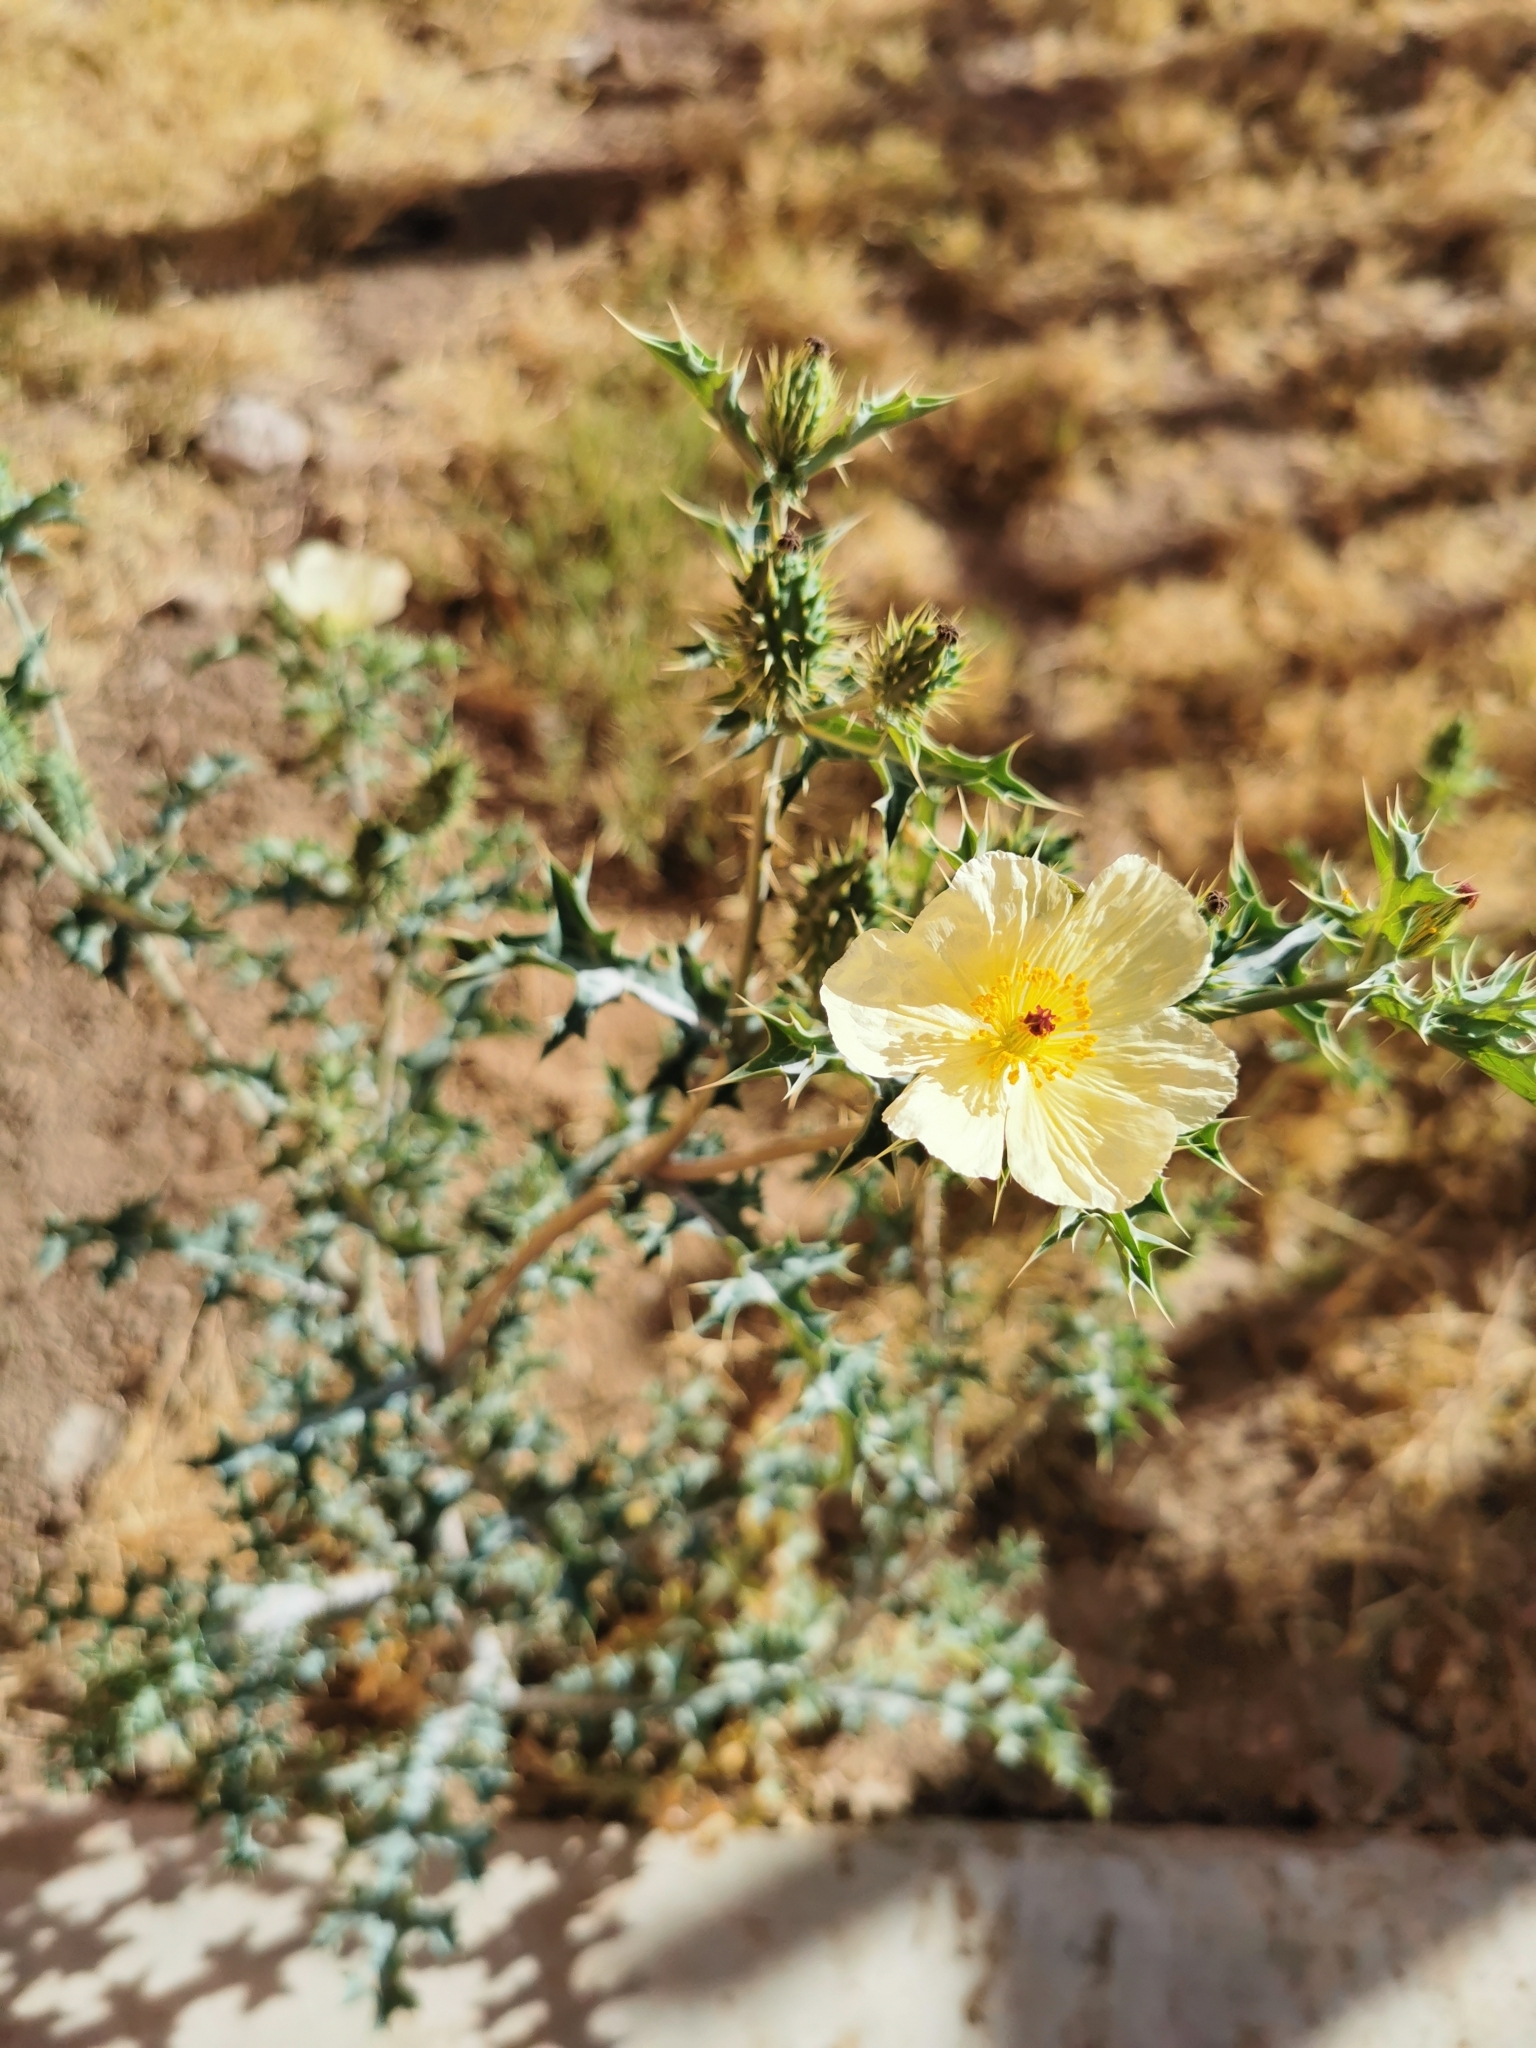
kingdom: Plantae
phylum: Tracheophyta
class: Magnoliopsida
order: Ranunculales
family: Papaveraceae
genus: Argemone
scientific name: Argemone ochroleuca
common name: White-flower mexican-poppy
